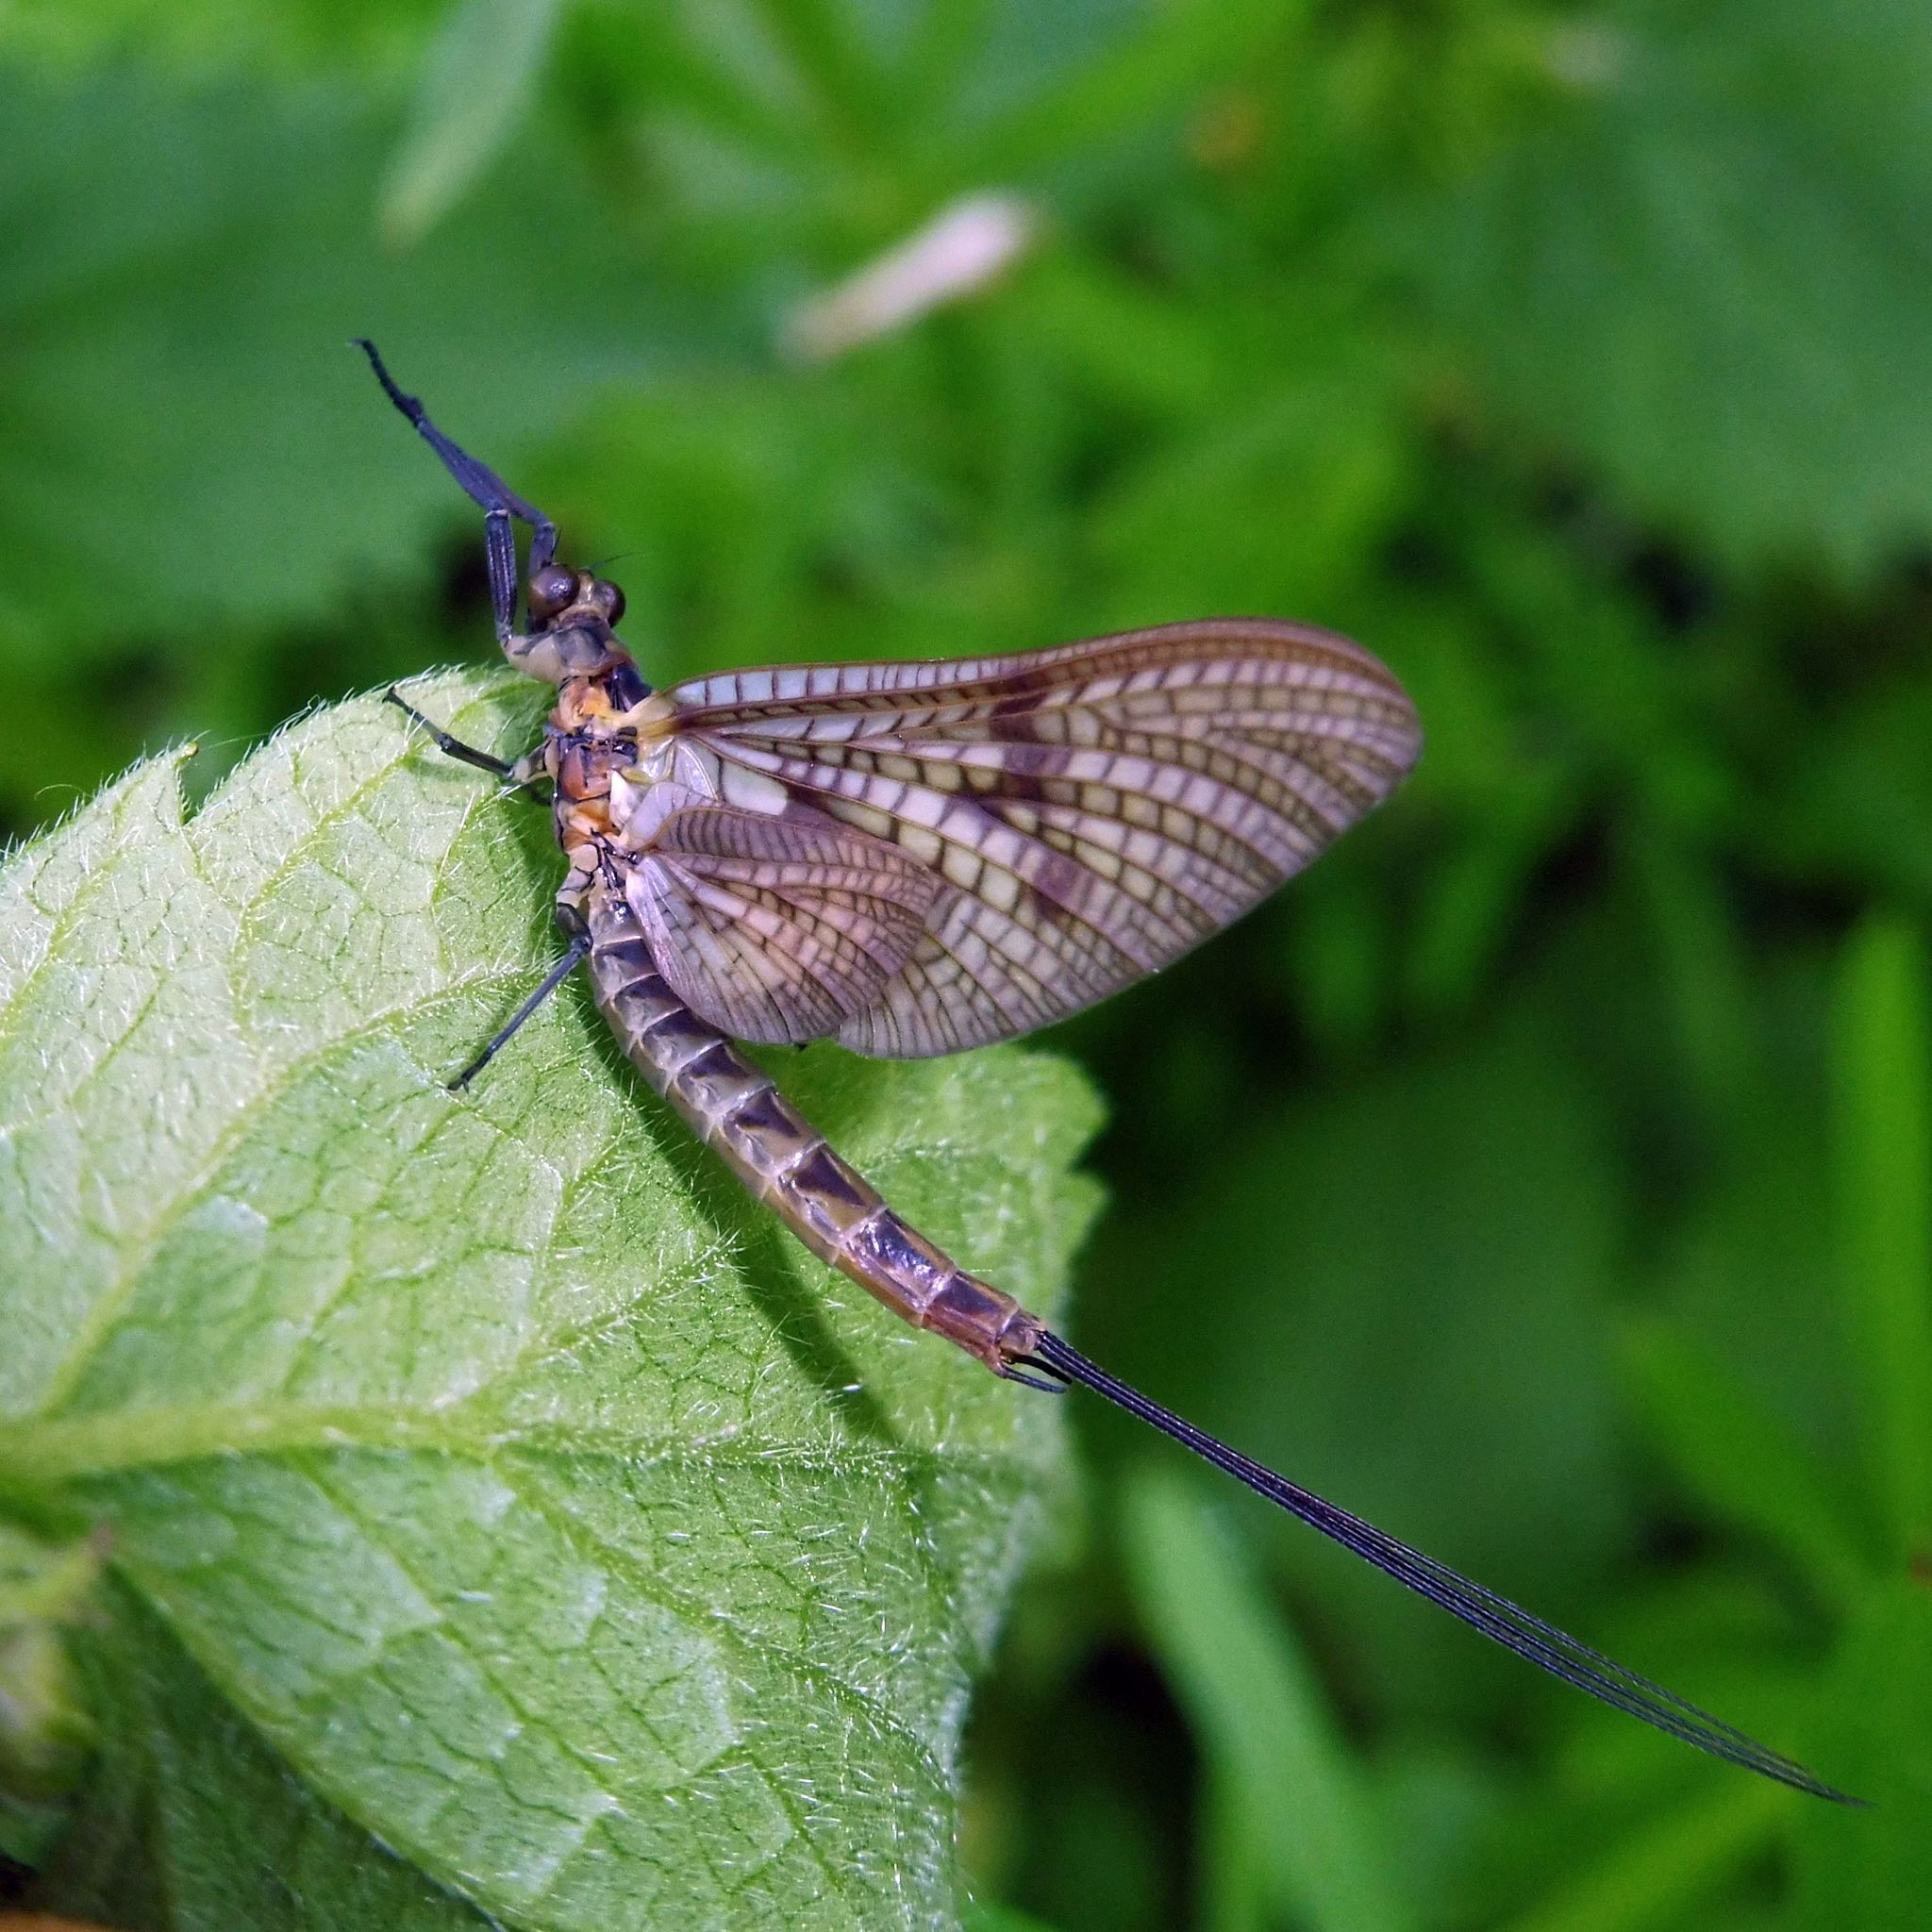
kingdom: Animalia
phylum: Arthropoda
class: Insecta
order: Ephemeroptera
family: Ephemeridae
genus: Ephemera
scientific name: Ephemera vulgata
